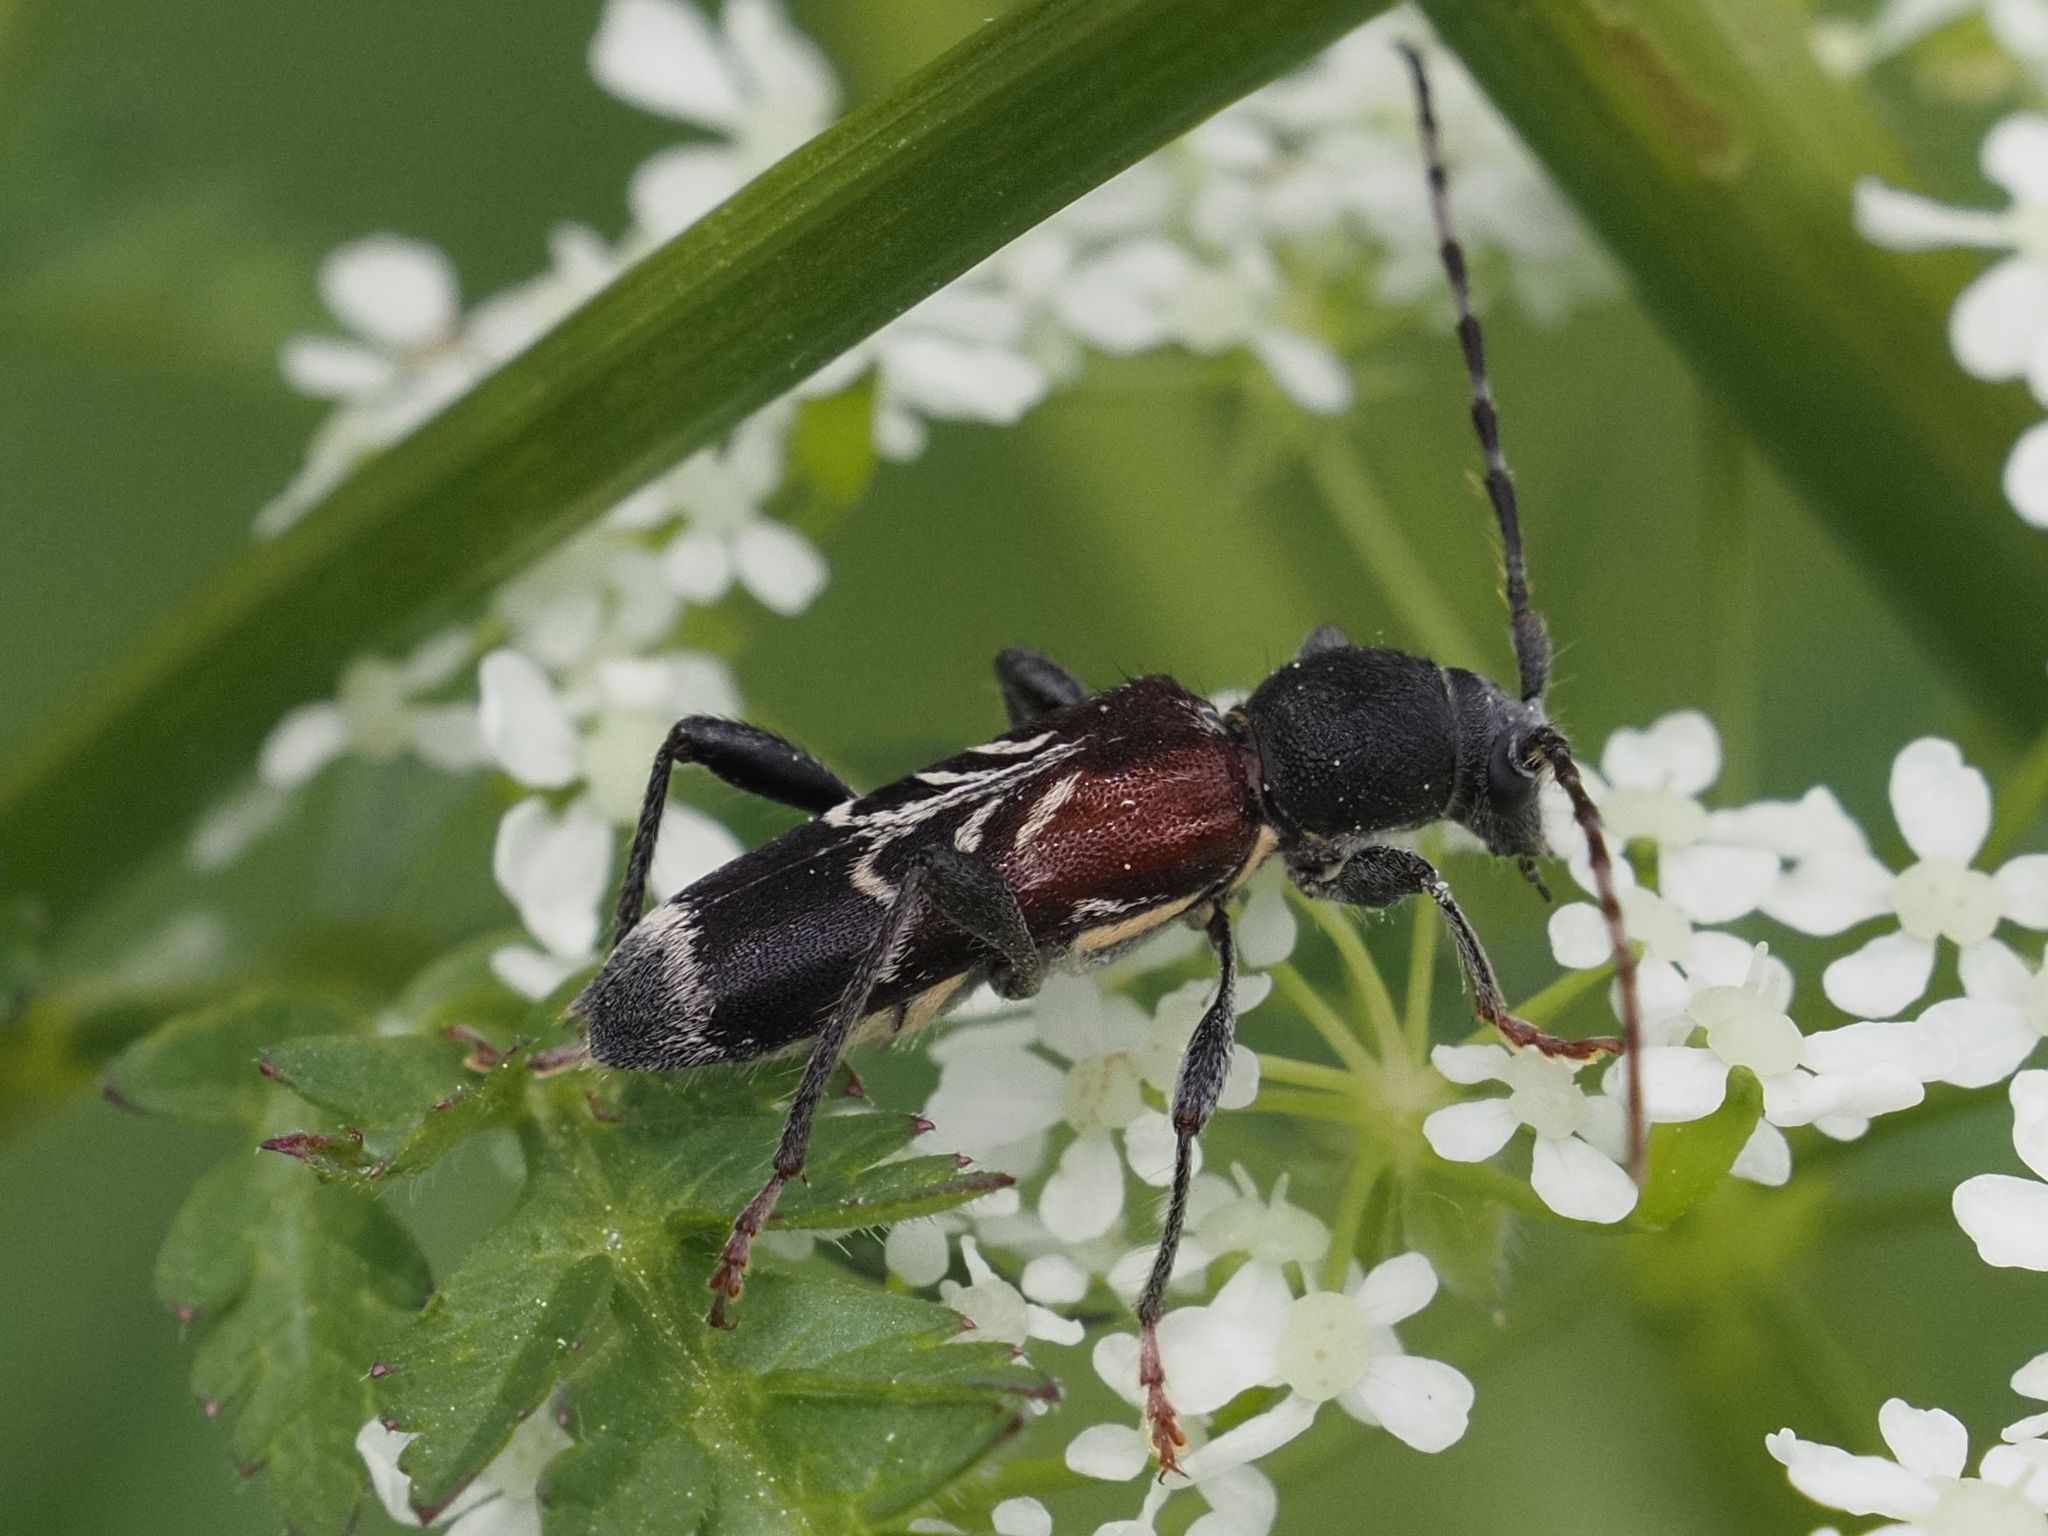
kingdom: Animalia
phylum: Arthropoda
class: Insecta
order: Coleoptera
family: Cerambycidae
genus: Anaglyptus
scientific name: Anaglyptus mysticus
